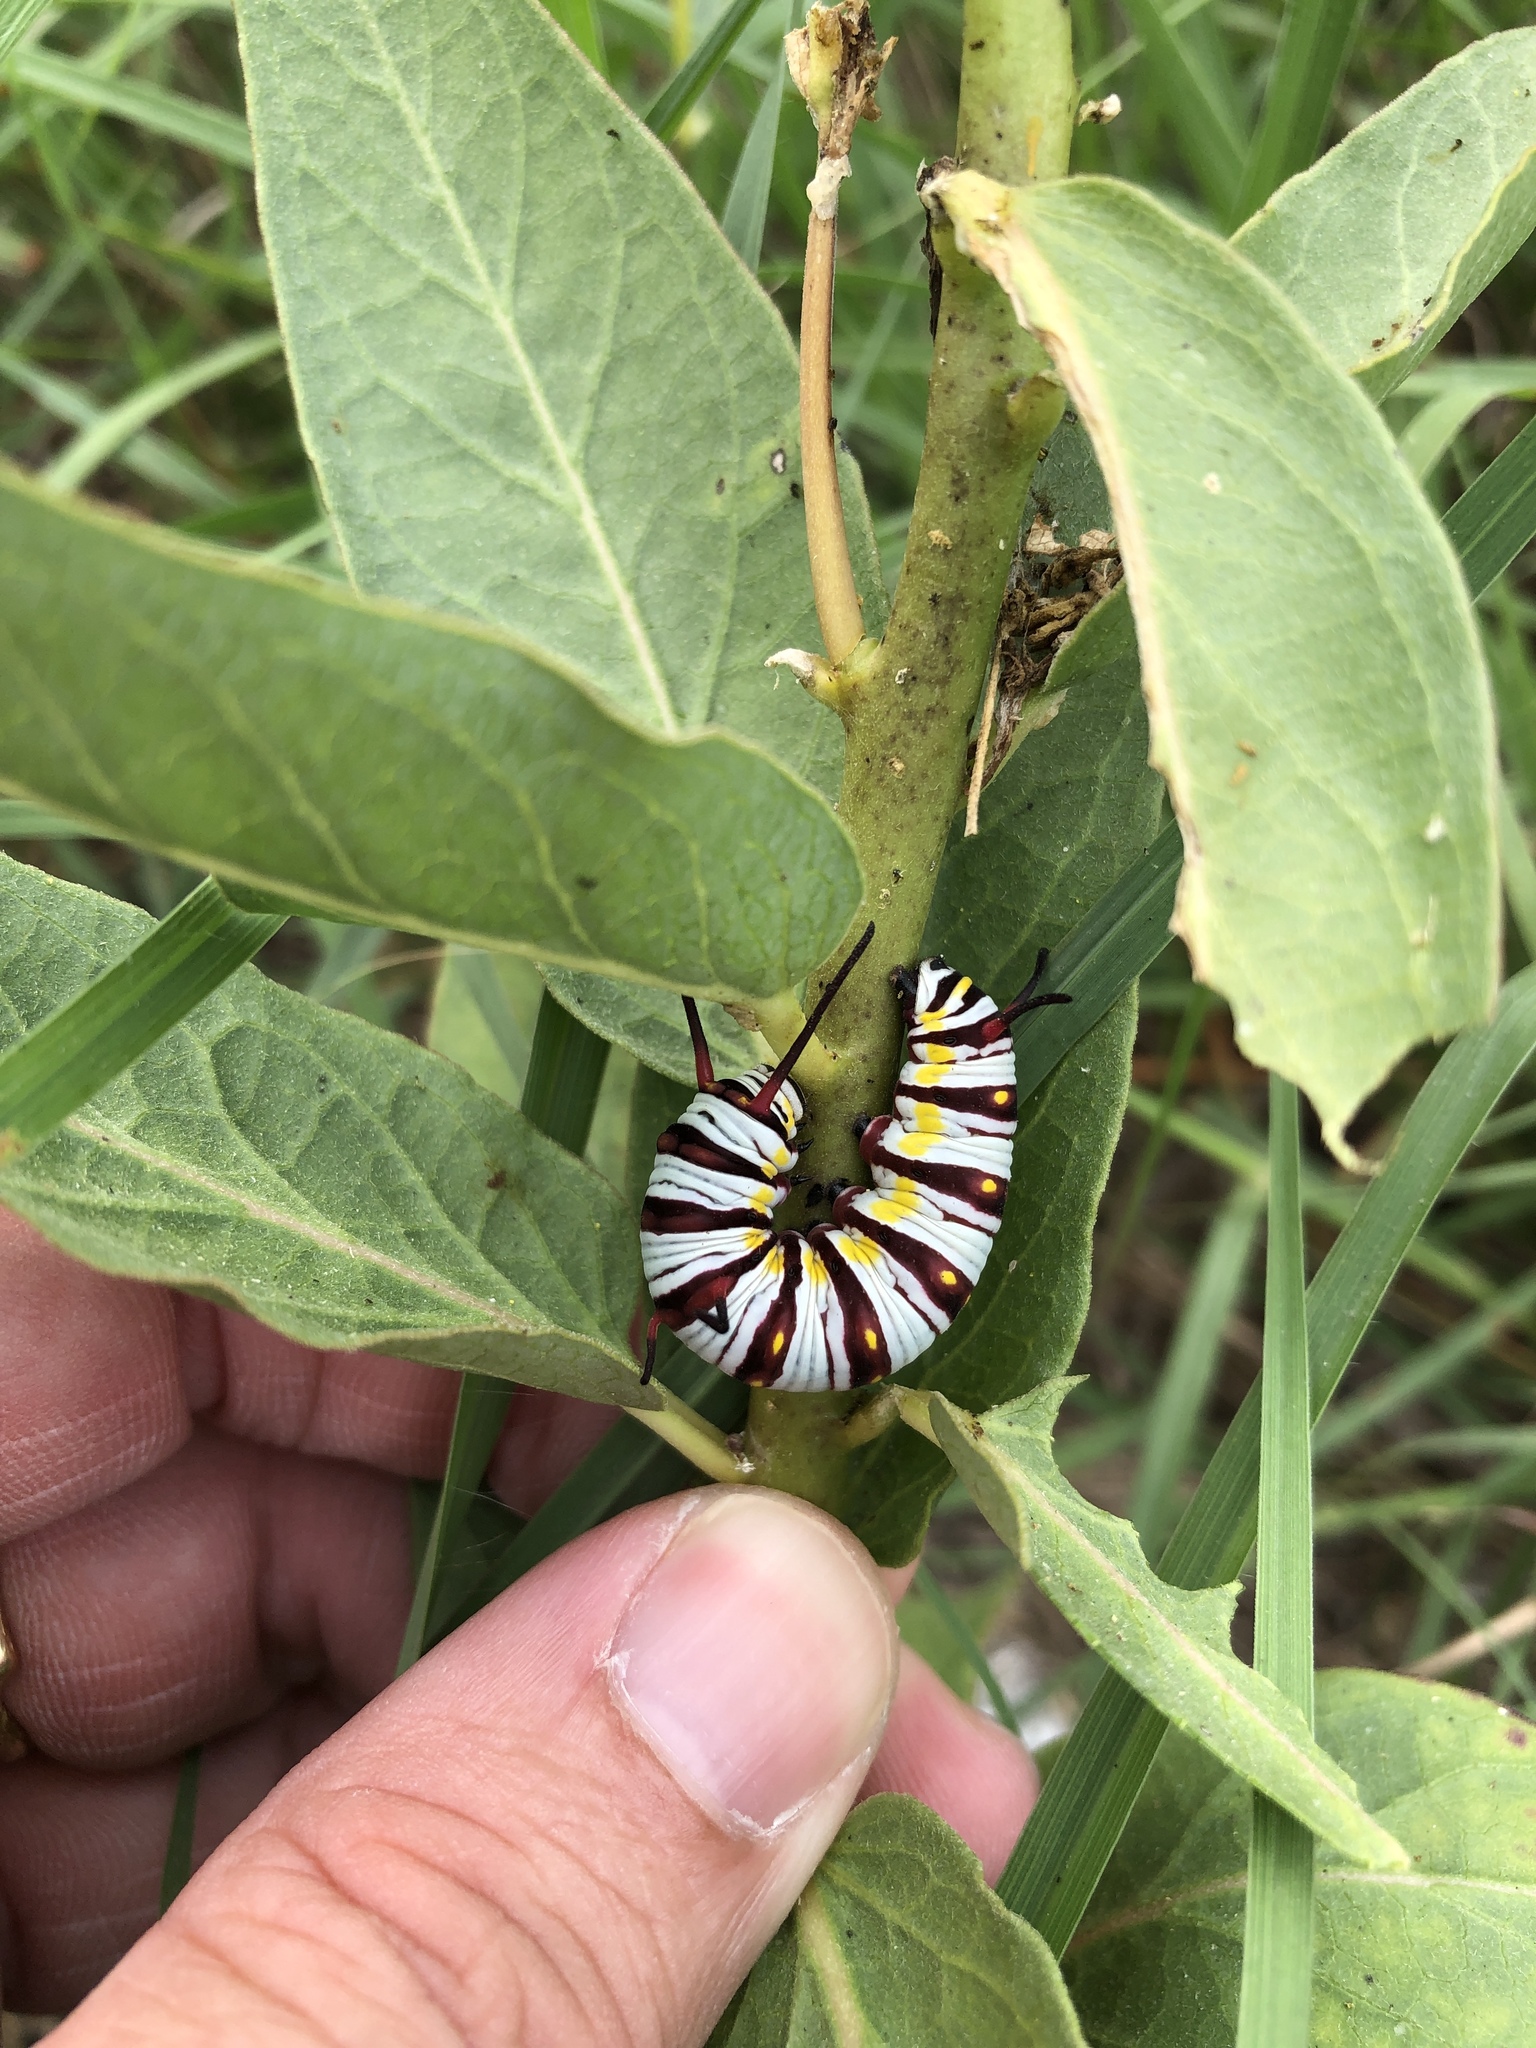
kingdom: Animalia
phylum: Arthropoda
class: Insecta
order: Lepidoptera
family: Nymphalidae
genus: Danaus
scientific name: Danaus gilippus
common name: Queen
